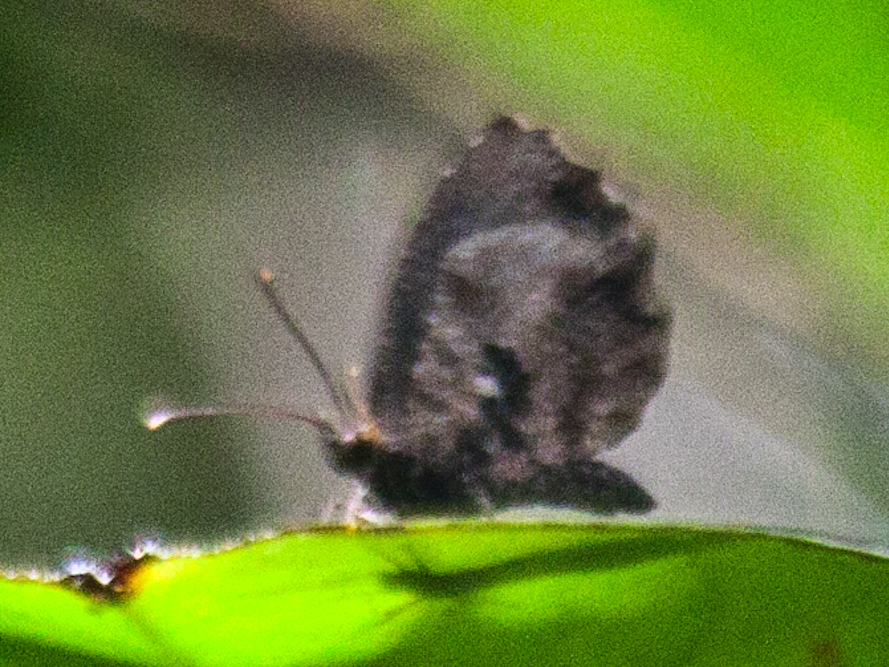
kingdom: Animalia
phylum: Arthropoda
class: Insecta
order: Lepidoptera
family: Lycaenidae
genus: Logania
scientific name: Logania
